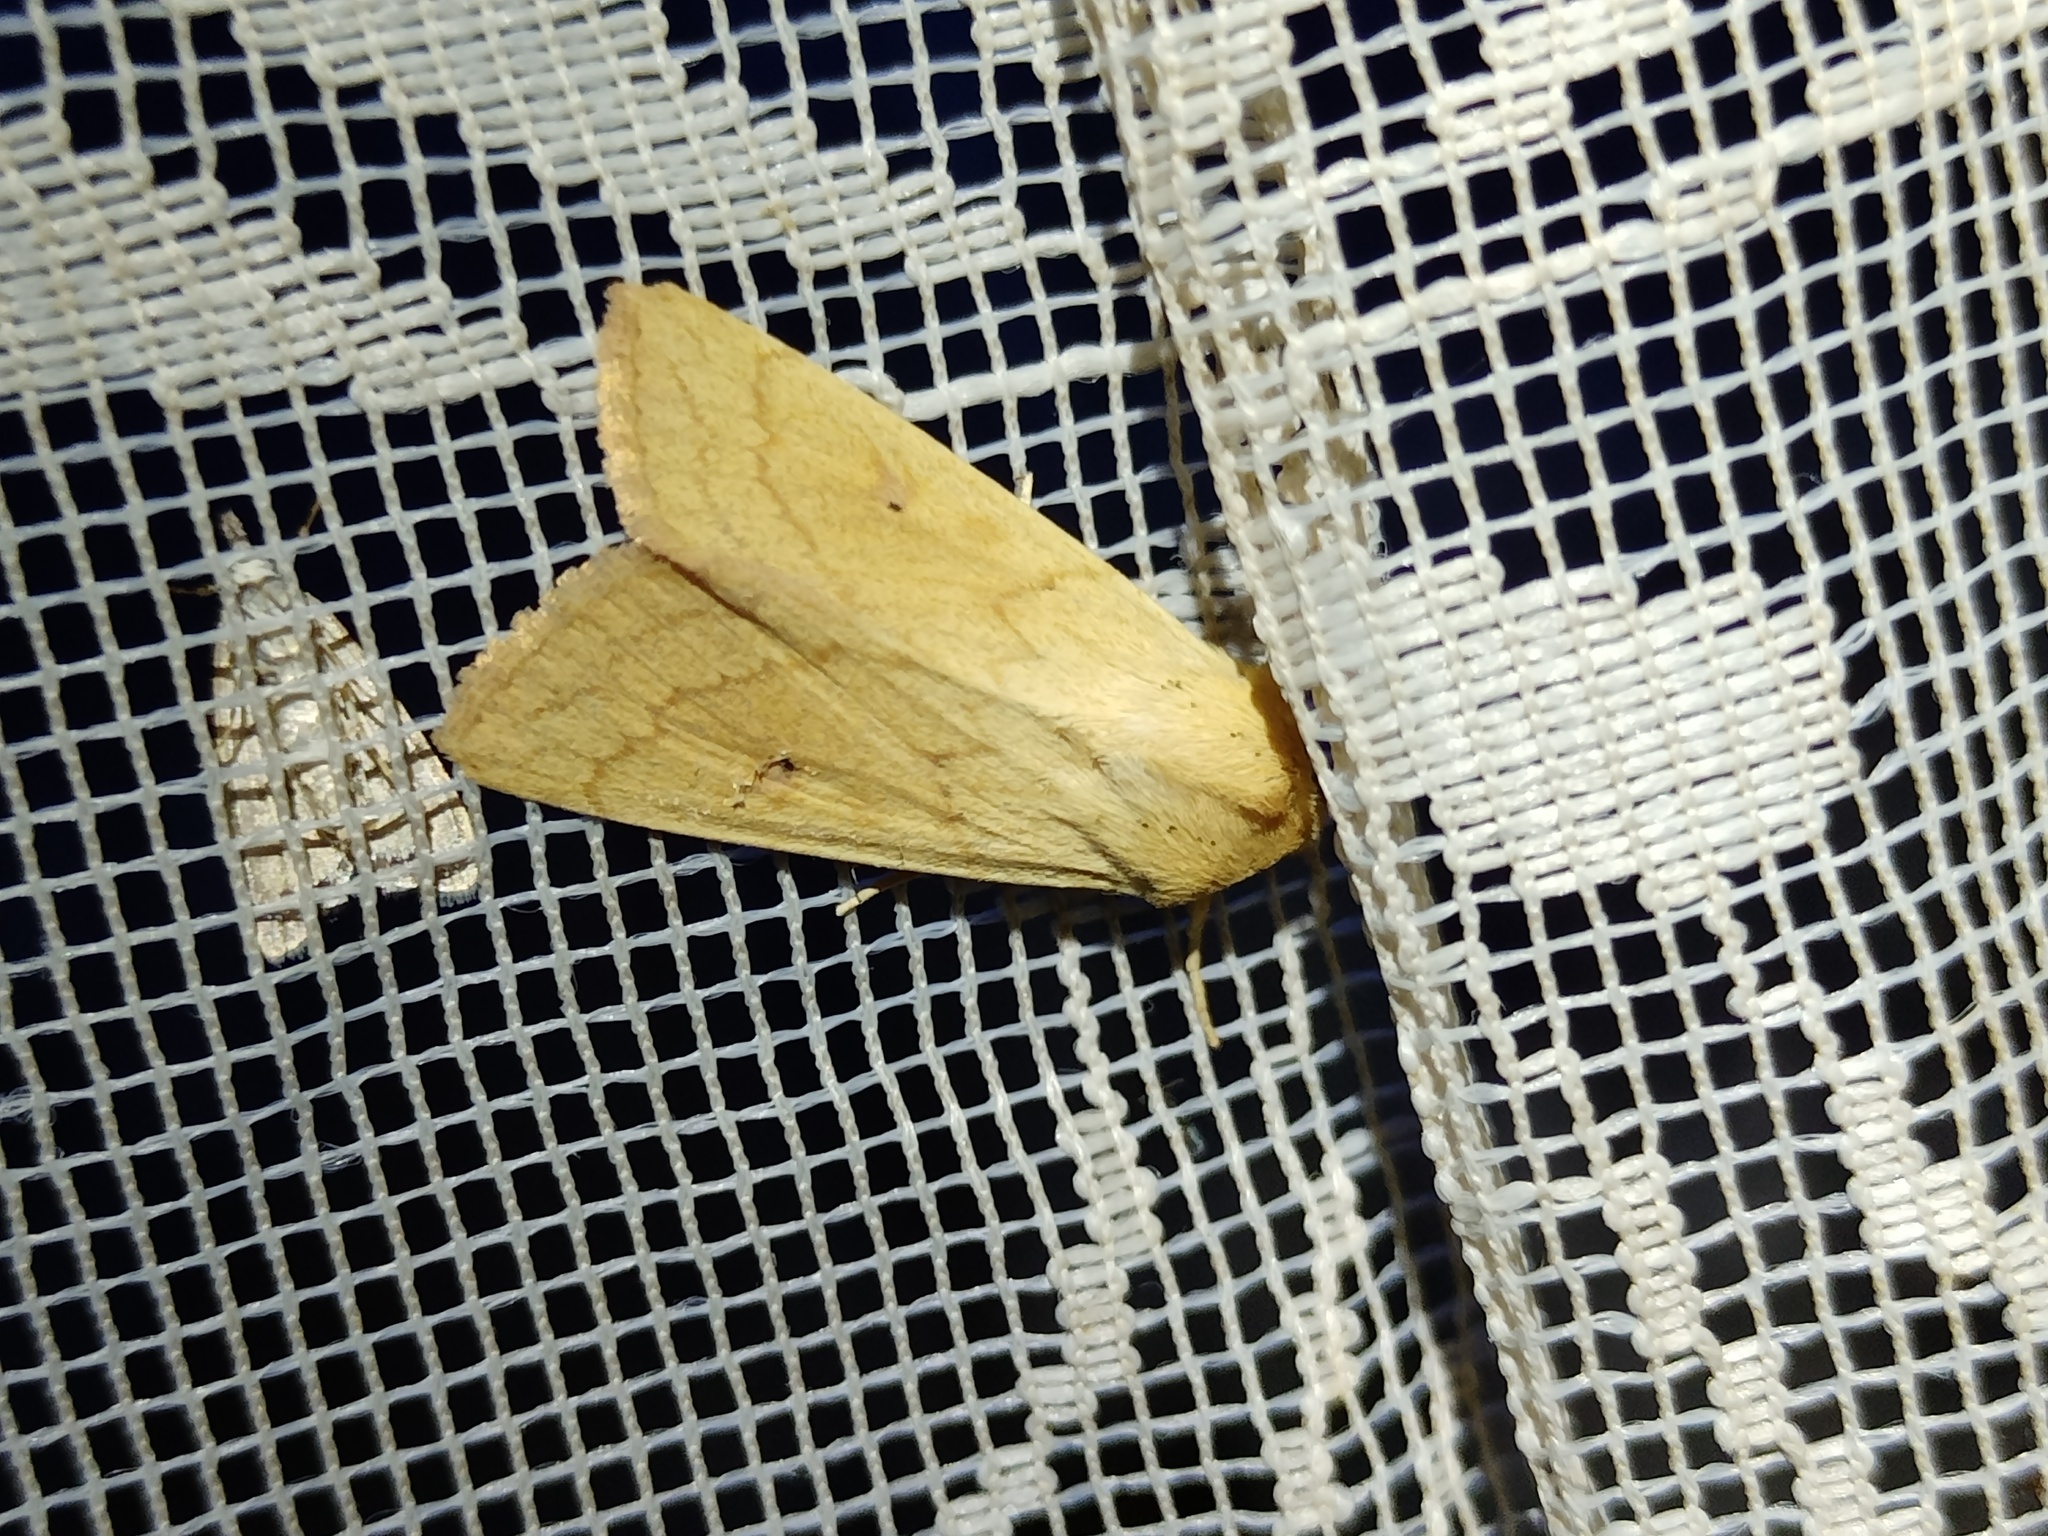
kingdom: Animalia
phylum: Arthropoda
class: Insecta
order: Lepidoptera
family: Noctuidae
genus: Mythimna
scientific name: Mythimna vitellina
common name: Delicate
